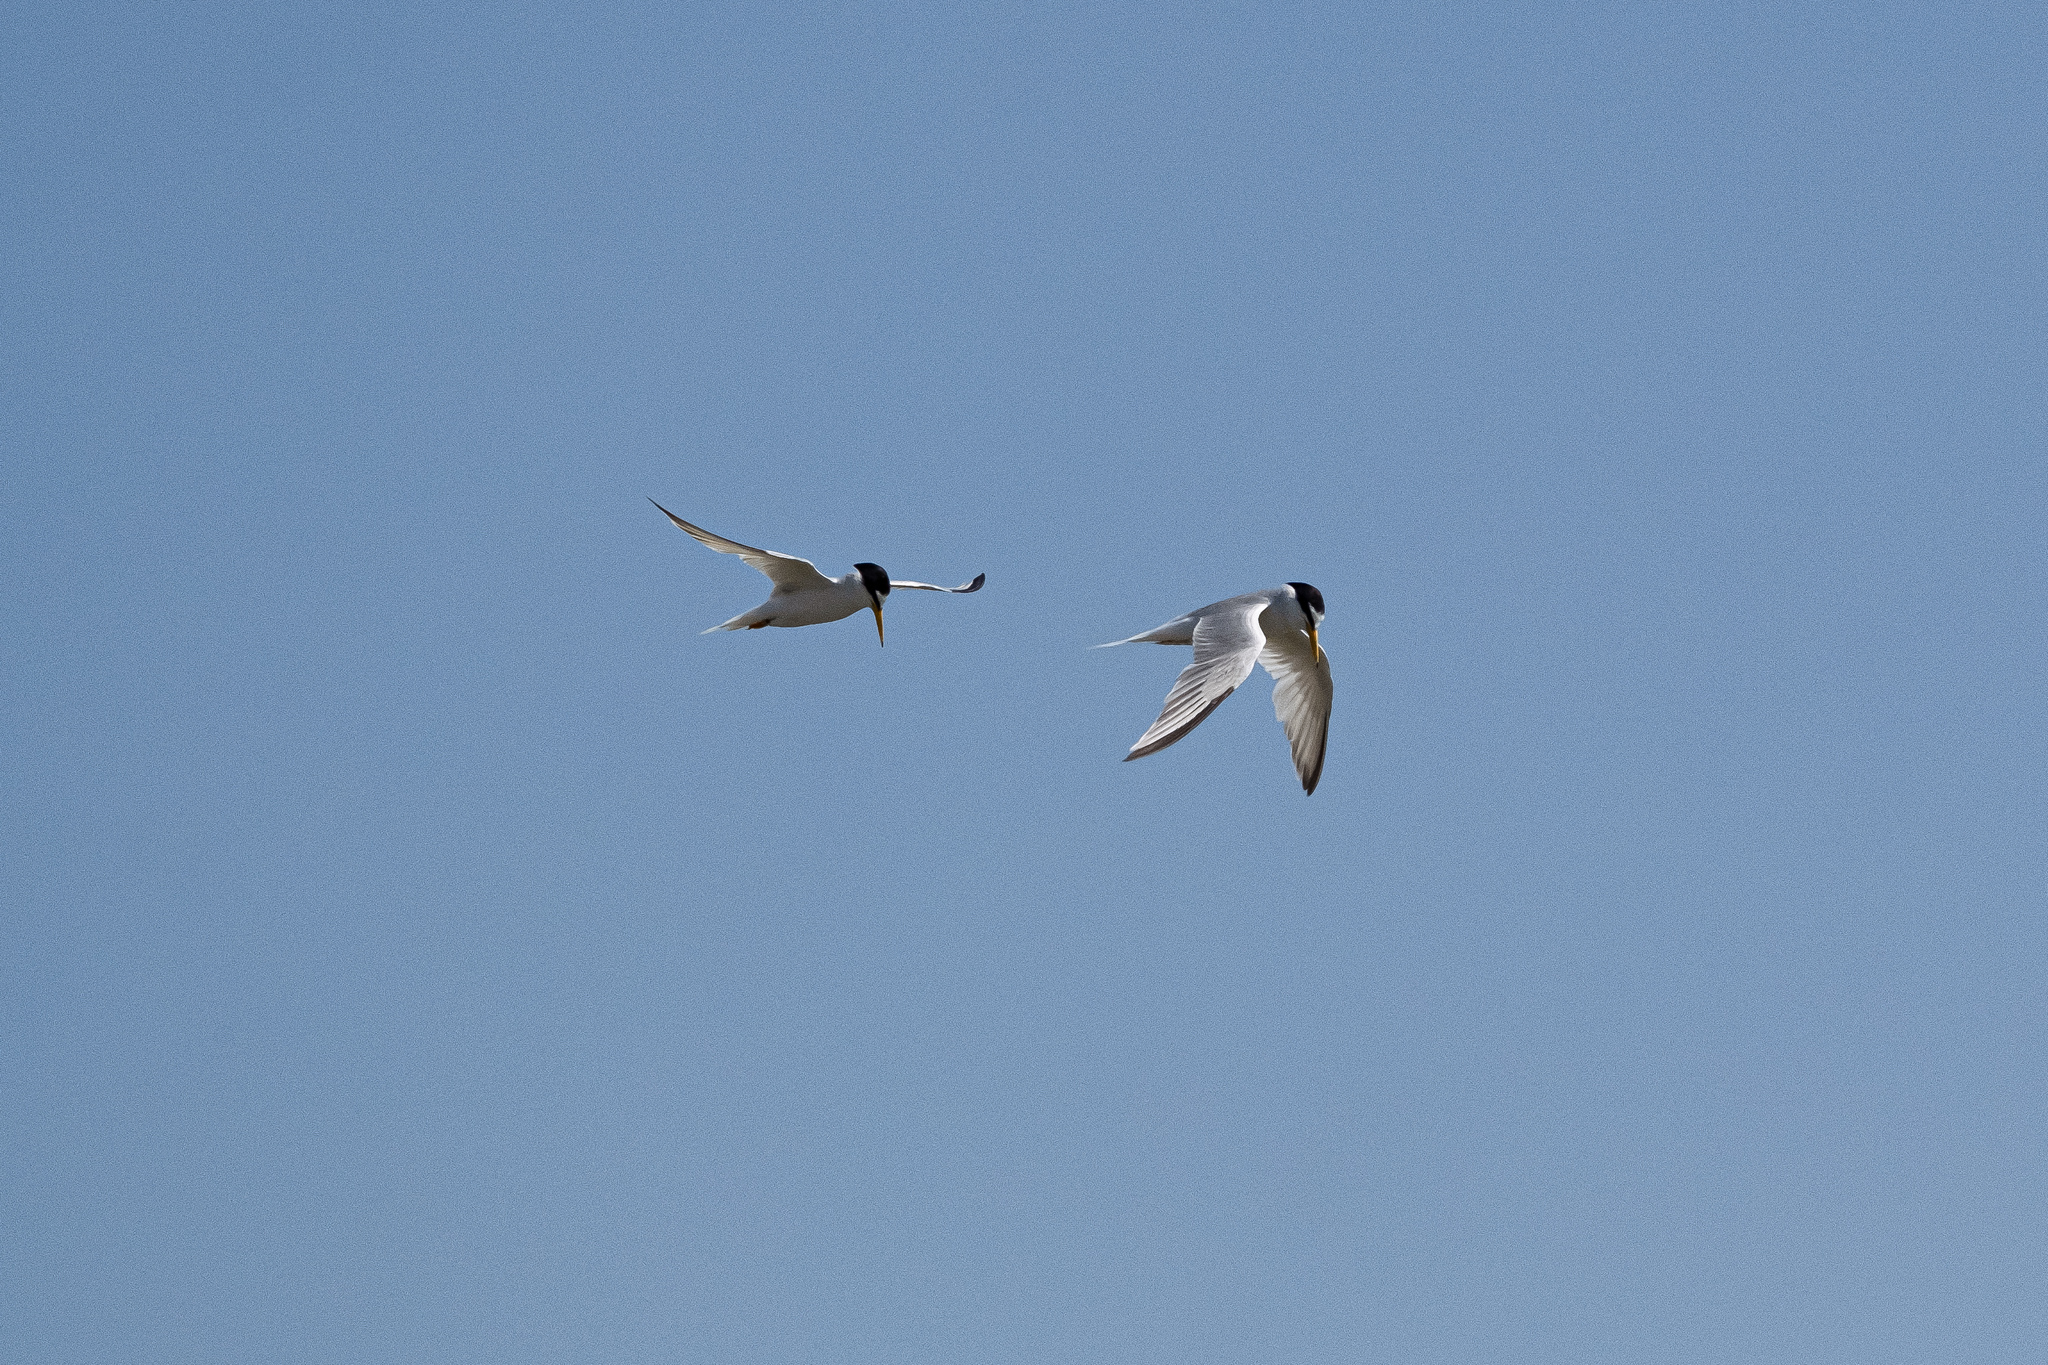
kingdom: Animalia
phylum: Chordata
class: Aves
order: Charadriiformes
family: Laridae
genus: Sternula
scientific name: Sternula albifrons
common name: Little tern
